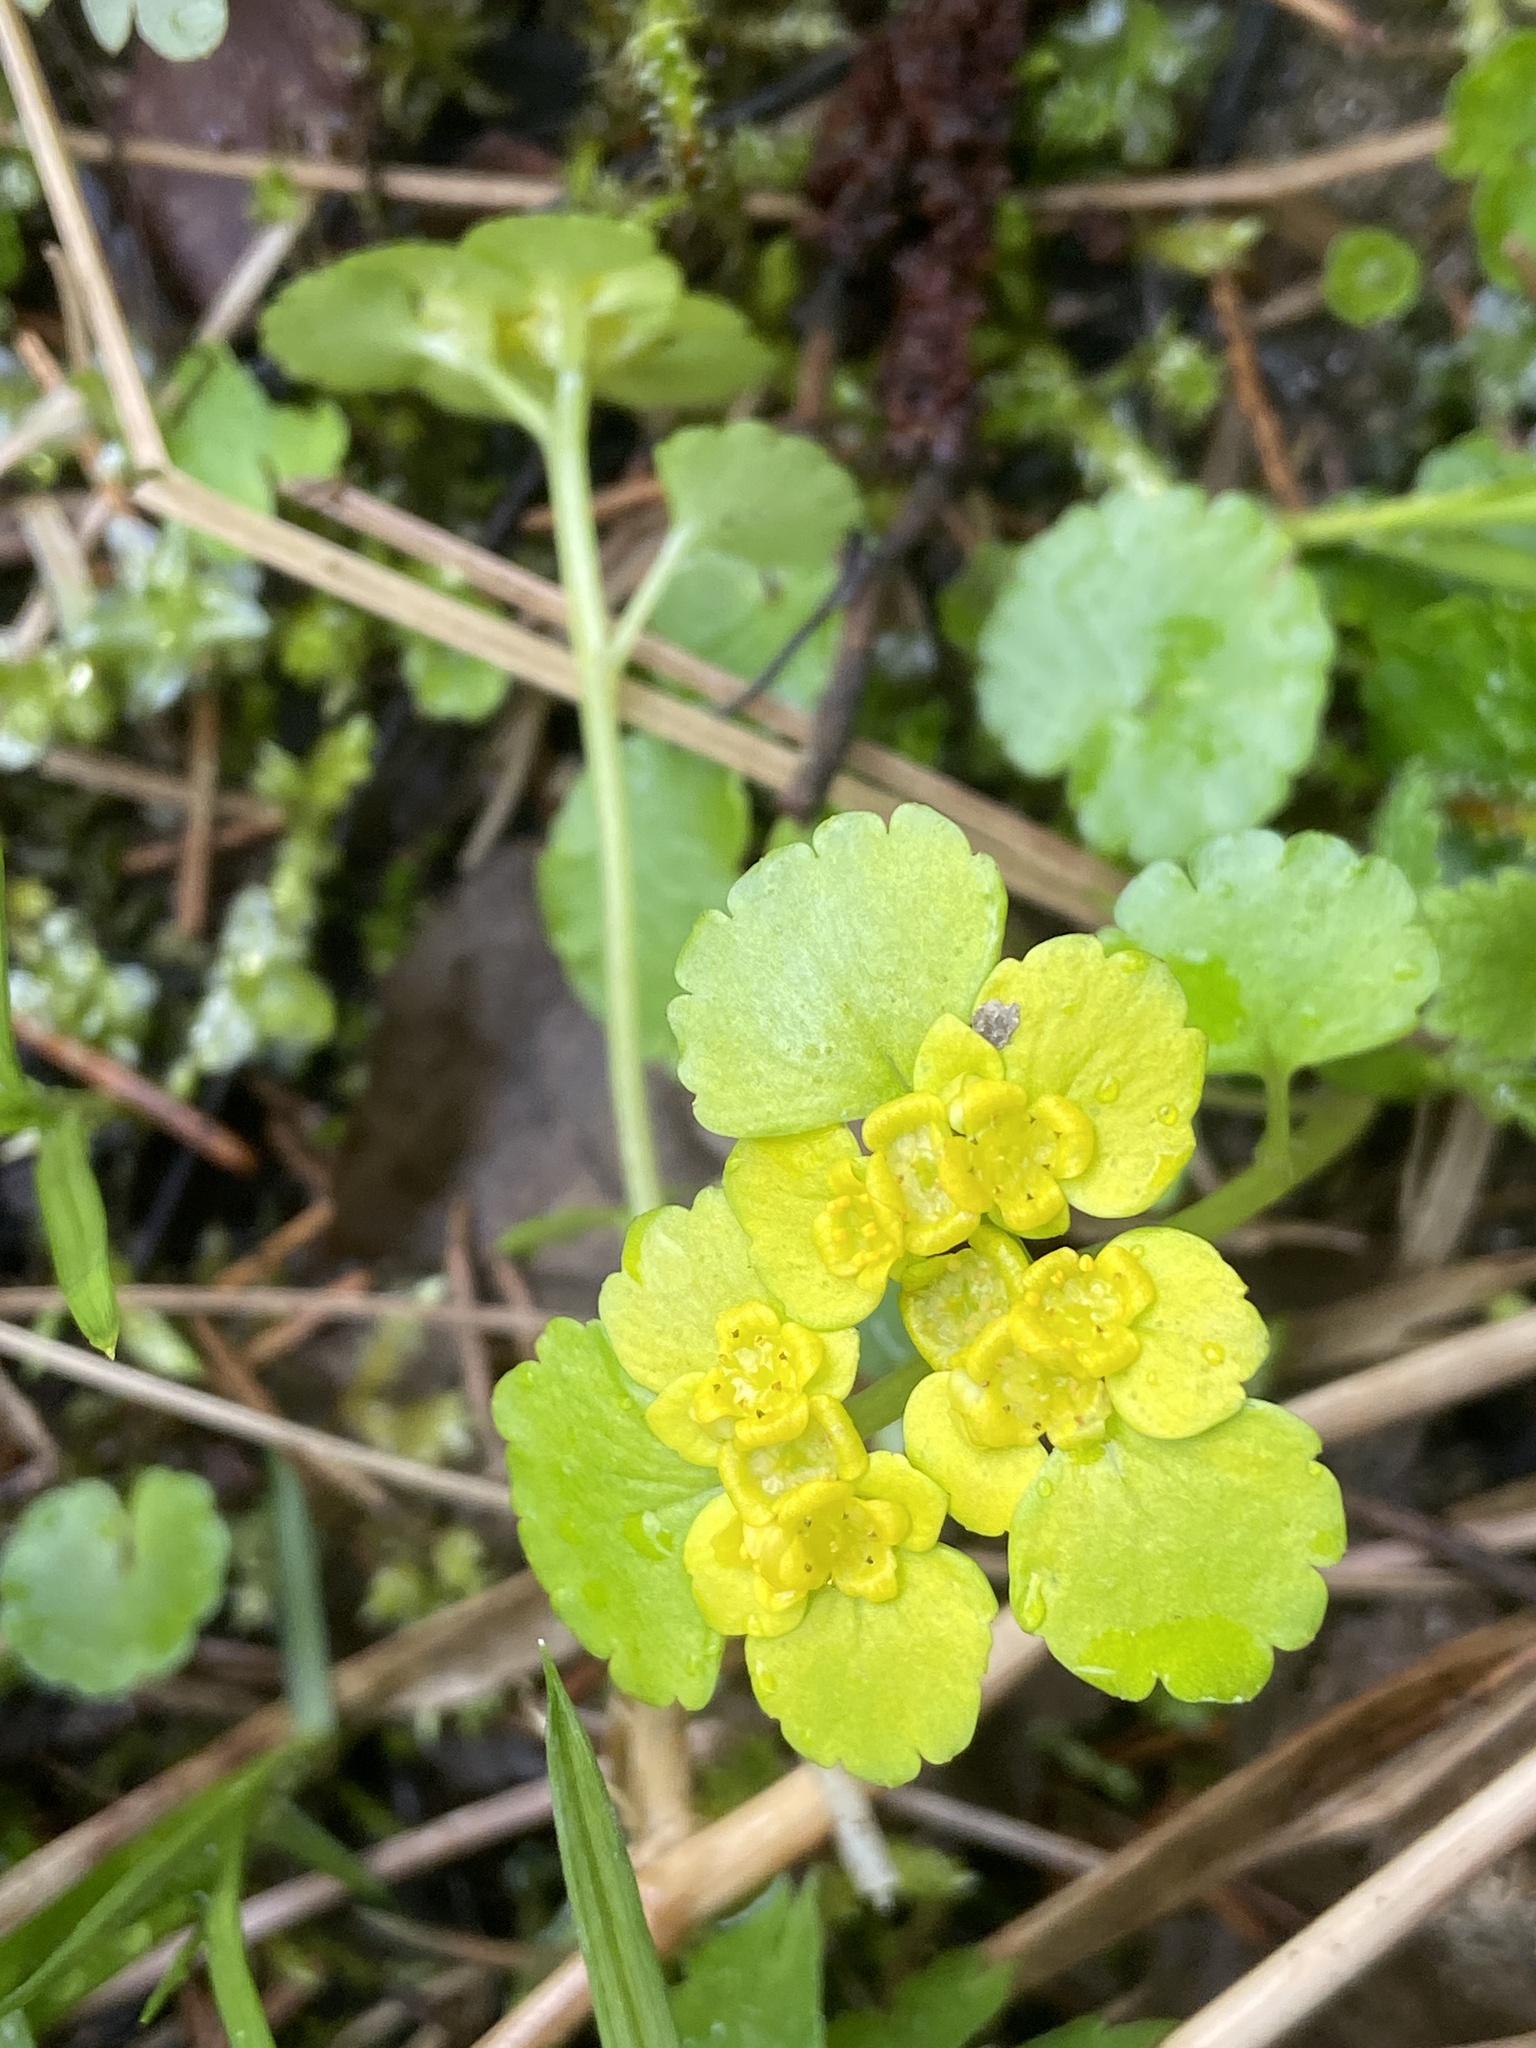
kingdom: Plantae
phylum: Tracheophyta
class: Magnoliopsida
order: Saxifragales
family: Saxifragaceae
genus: Chrysosplenium
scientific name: Chrysosplenium alternifolium
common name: Alternate-leaved golden-saxifrage
